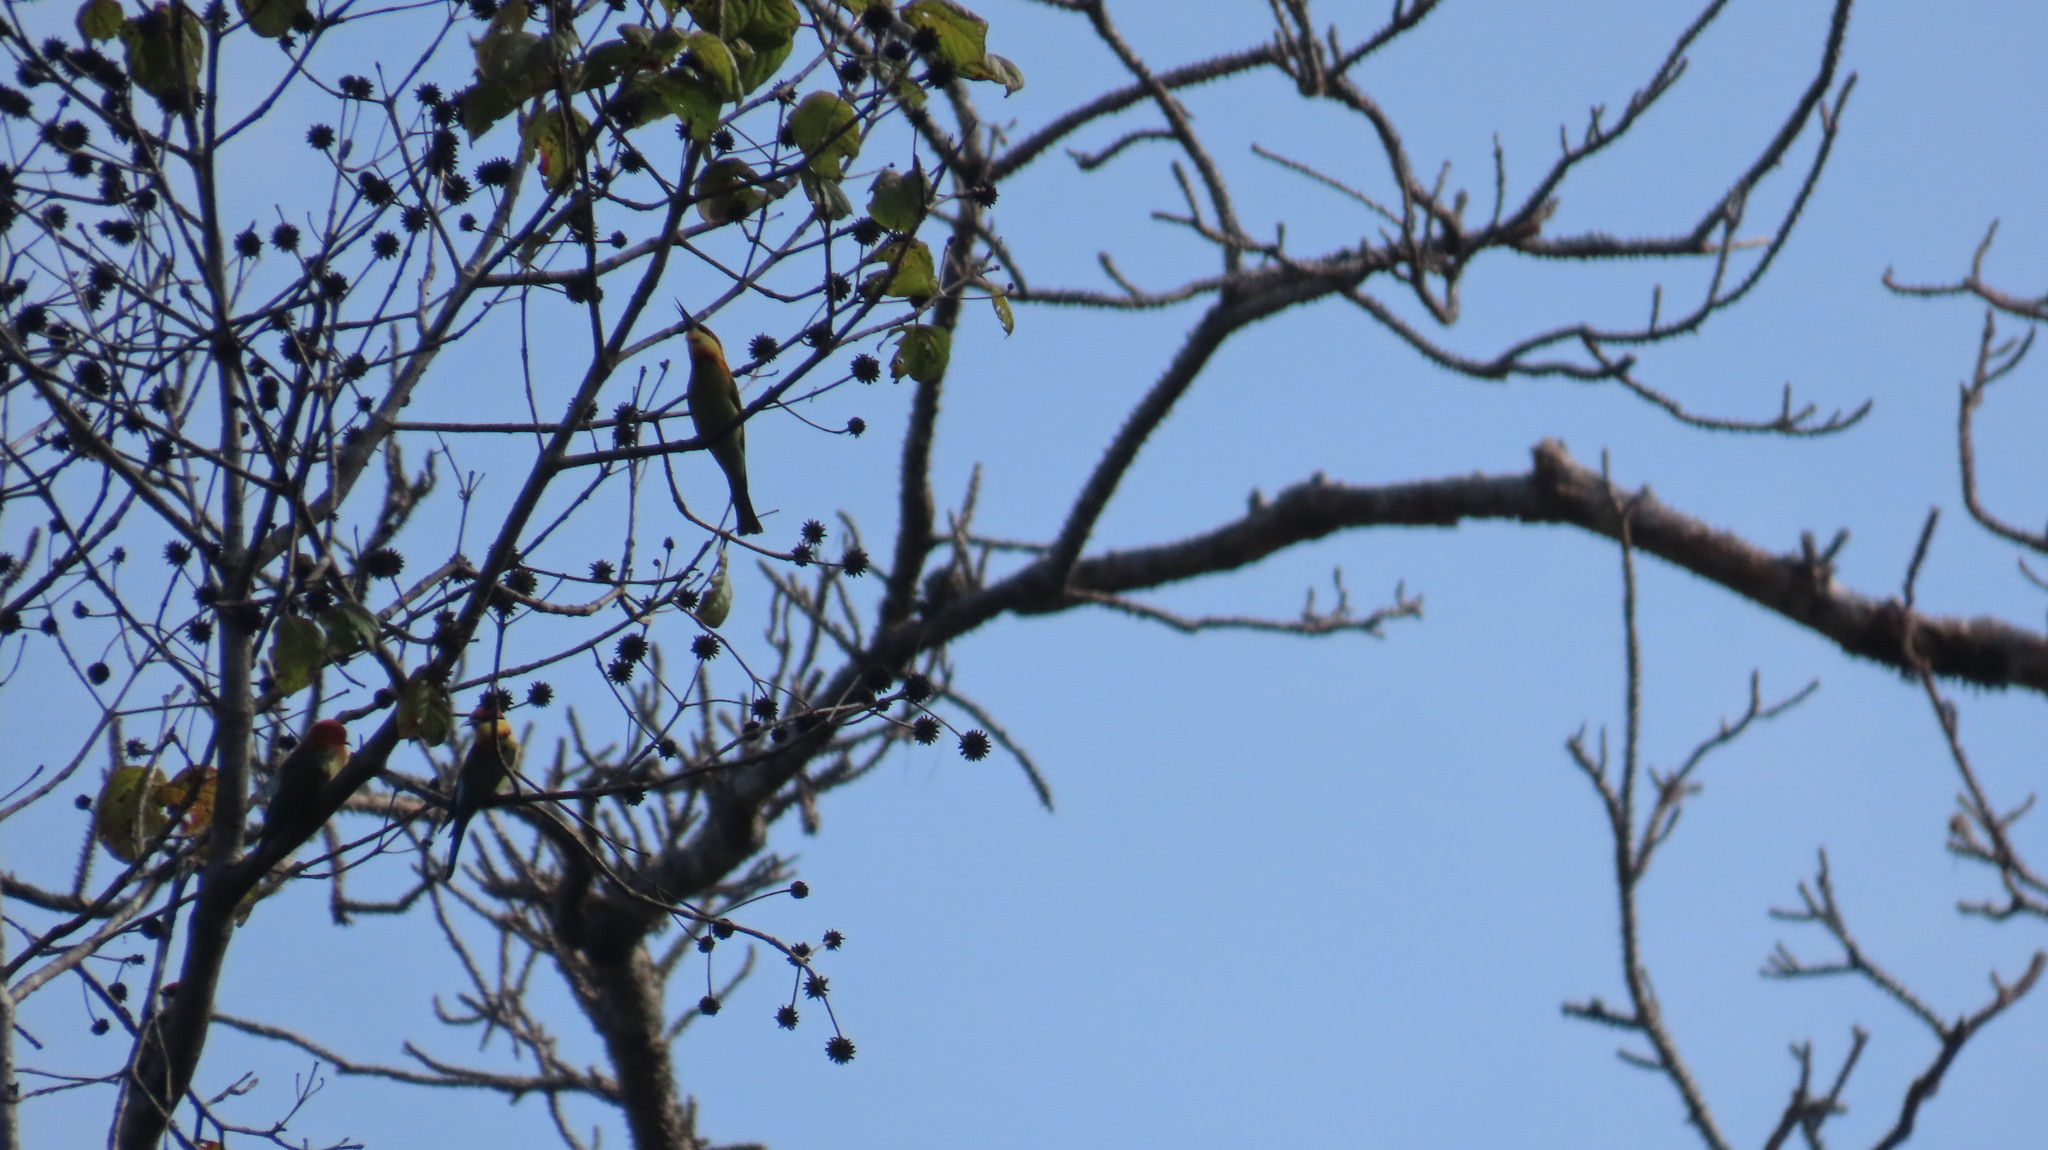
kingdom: Animalia
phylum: Chordata
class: Aves
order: Coraciiformes
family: Meropidae
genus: Merops
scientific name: Merops leschenaulti
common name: Chestnut-headed bee-eater
